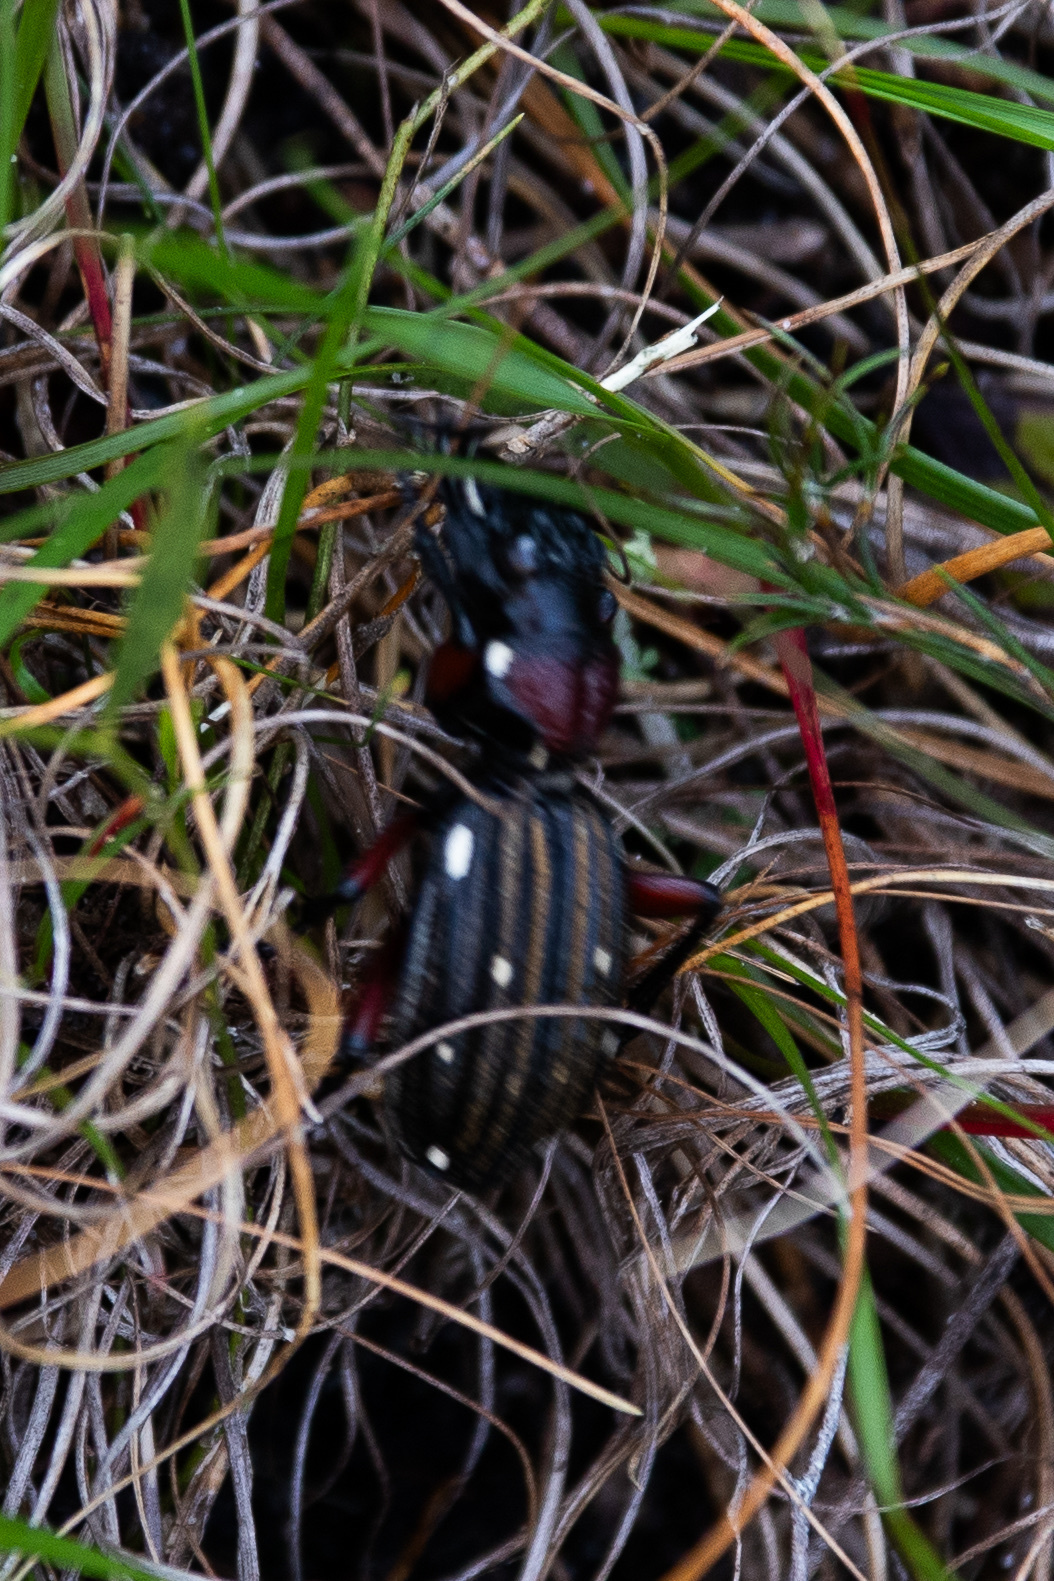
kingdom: Animalia
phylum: Arthropoda
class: Insecta
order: Coleoptera
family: Carabidae
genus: Anthia
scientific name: Anthia decemguttata
